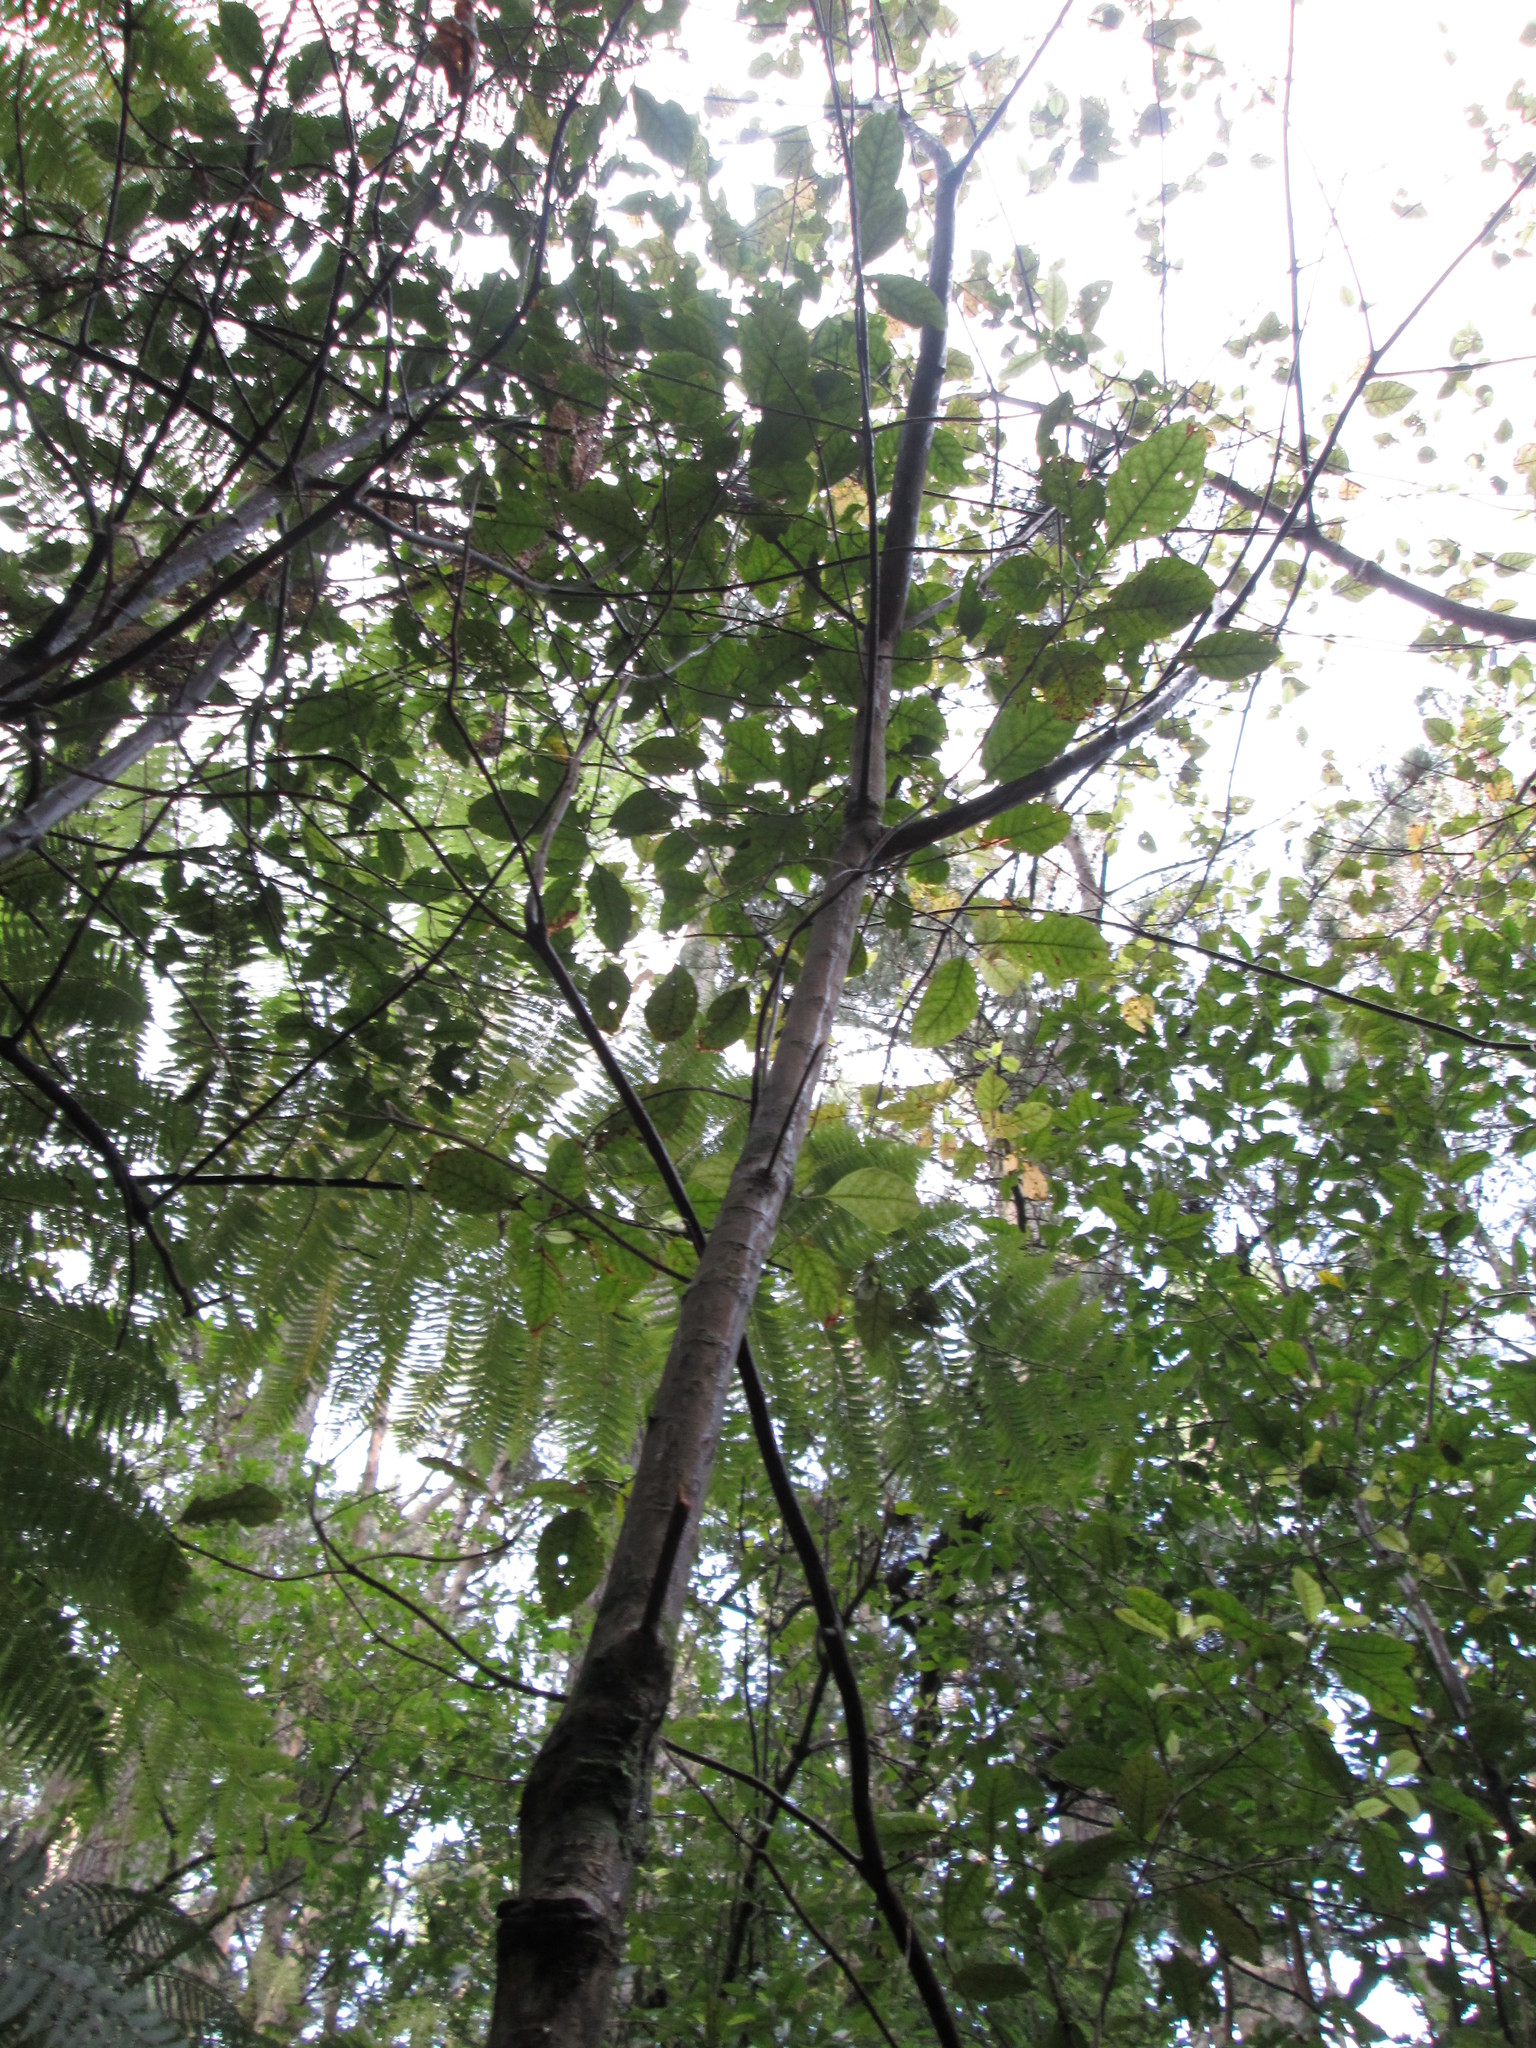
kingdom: Plantae
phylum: Tracheophyta
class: Magnoliopsida
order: Gentianales
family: Rubiaceae
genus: Coprosma
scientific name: Coprosma autumnalis
